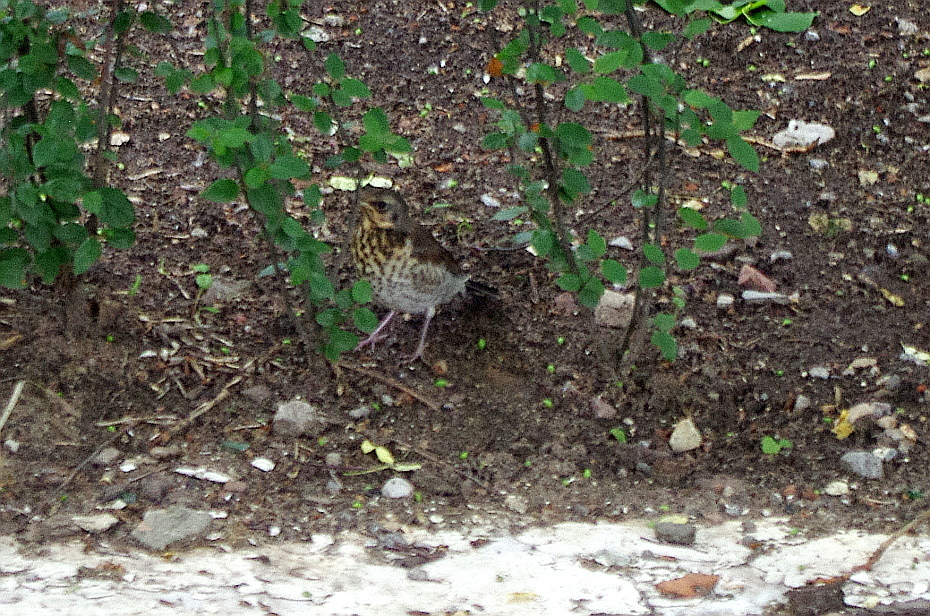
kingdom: Animalia
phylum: Chordata
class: Aves
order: Passeriformes
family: Turdidae
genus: Turdus
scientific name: Turdus pilaris
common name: Fieldfare
